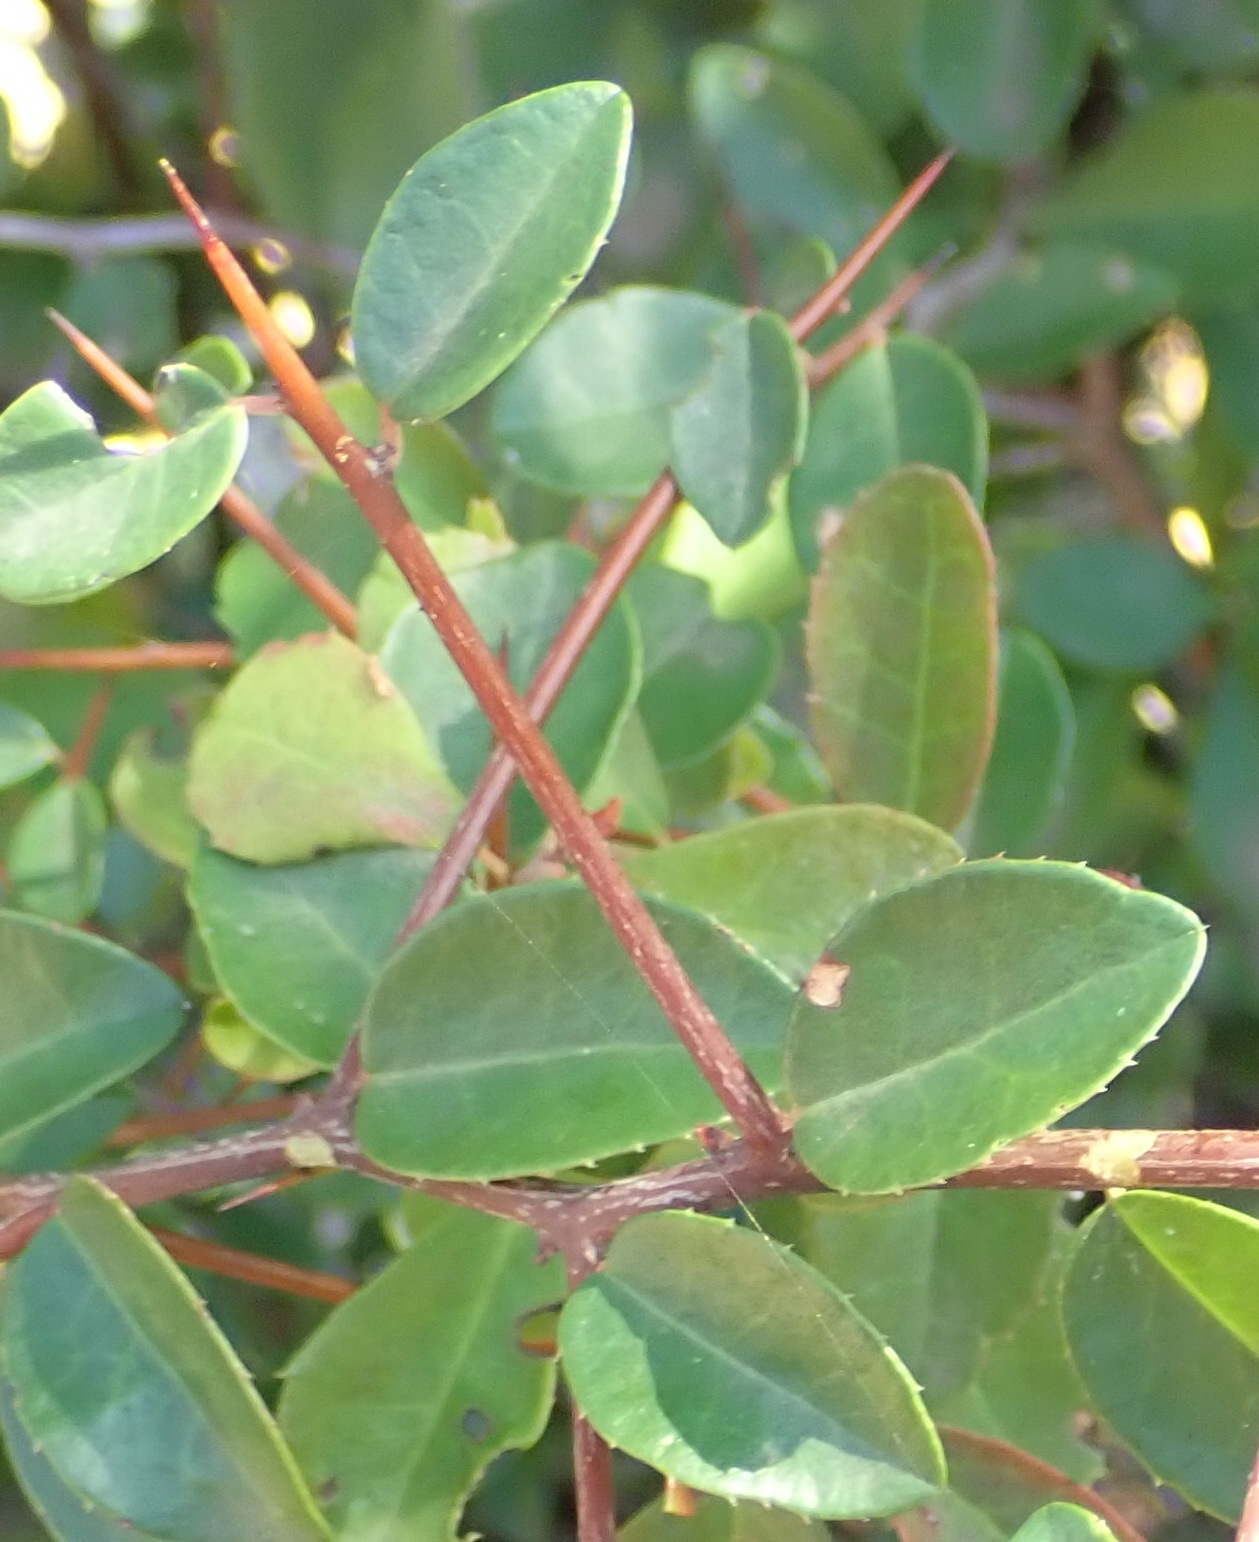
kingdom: Plantae
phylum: Tracheophyta
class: Magnoliopsida
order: Celastrales
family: Celastraceae
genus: Gymnosporia
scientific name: Gymnosporia nemorosa
